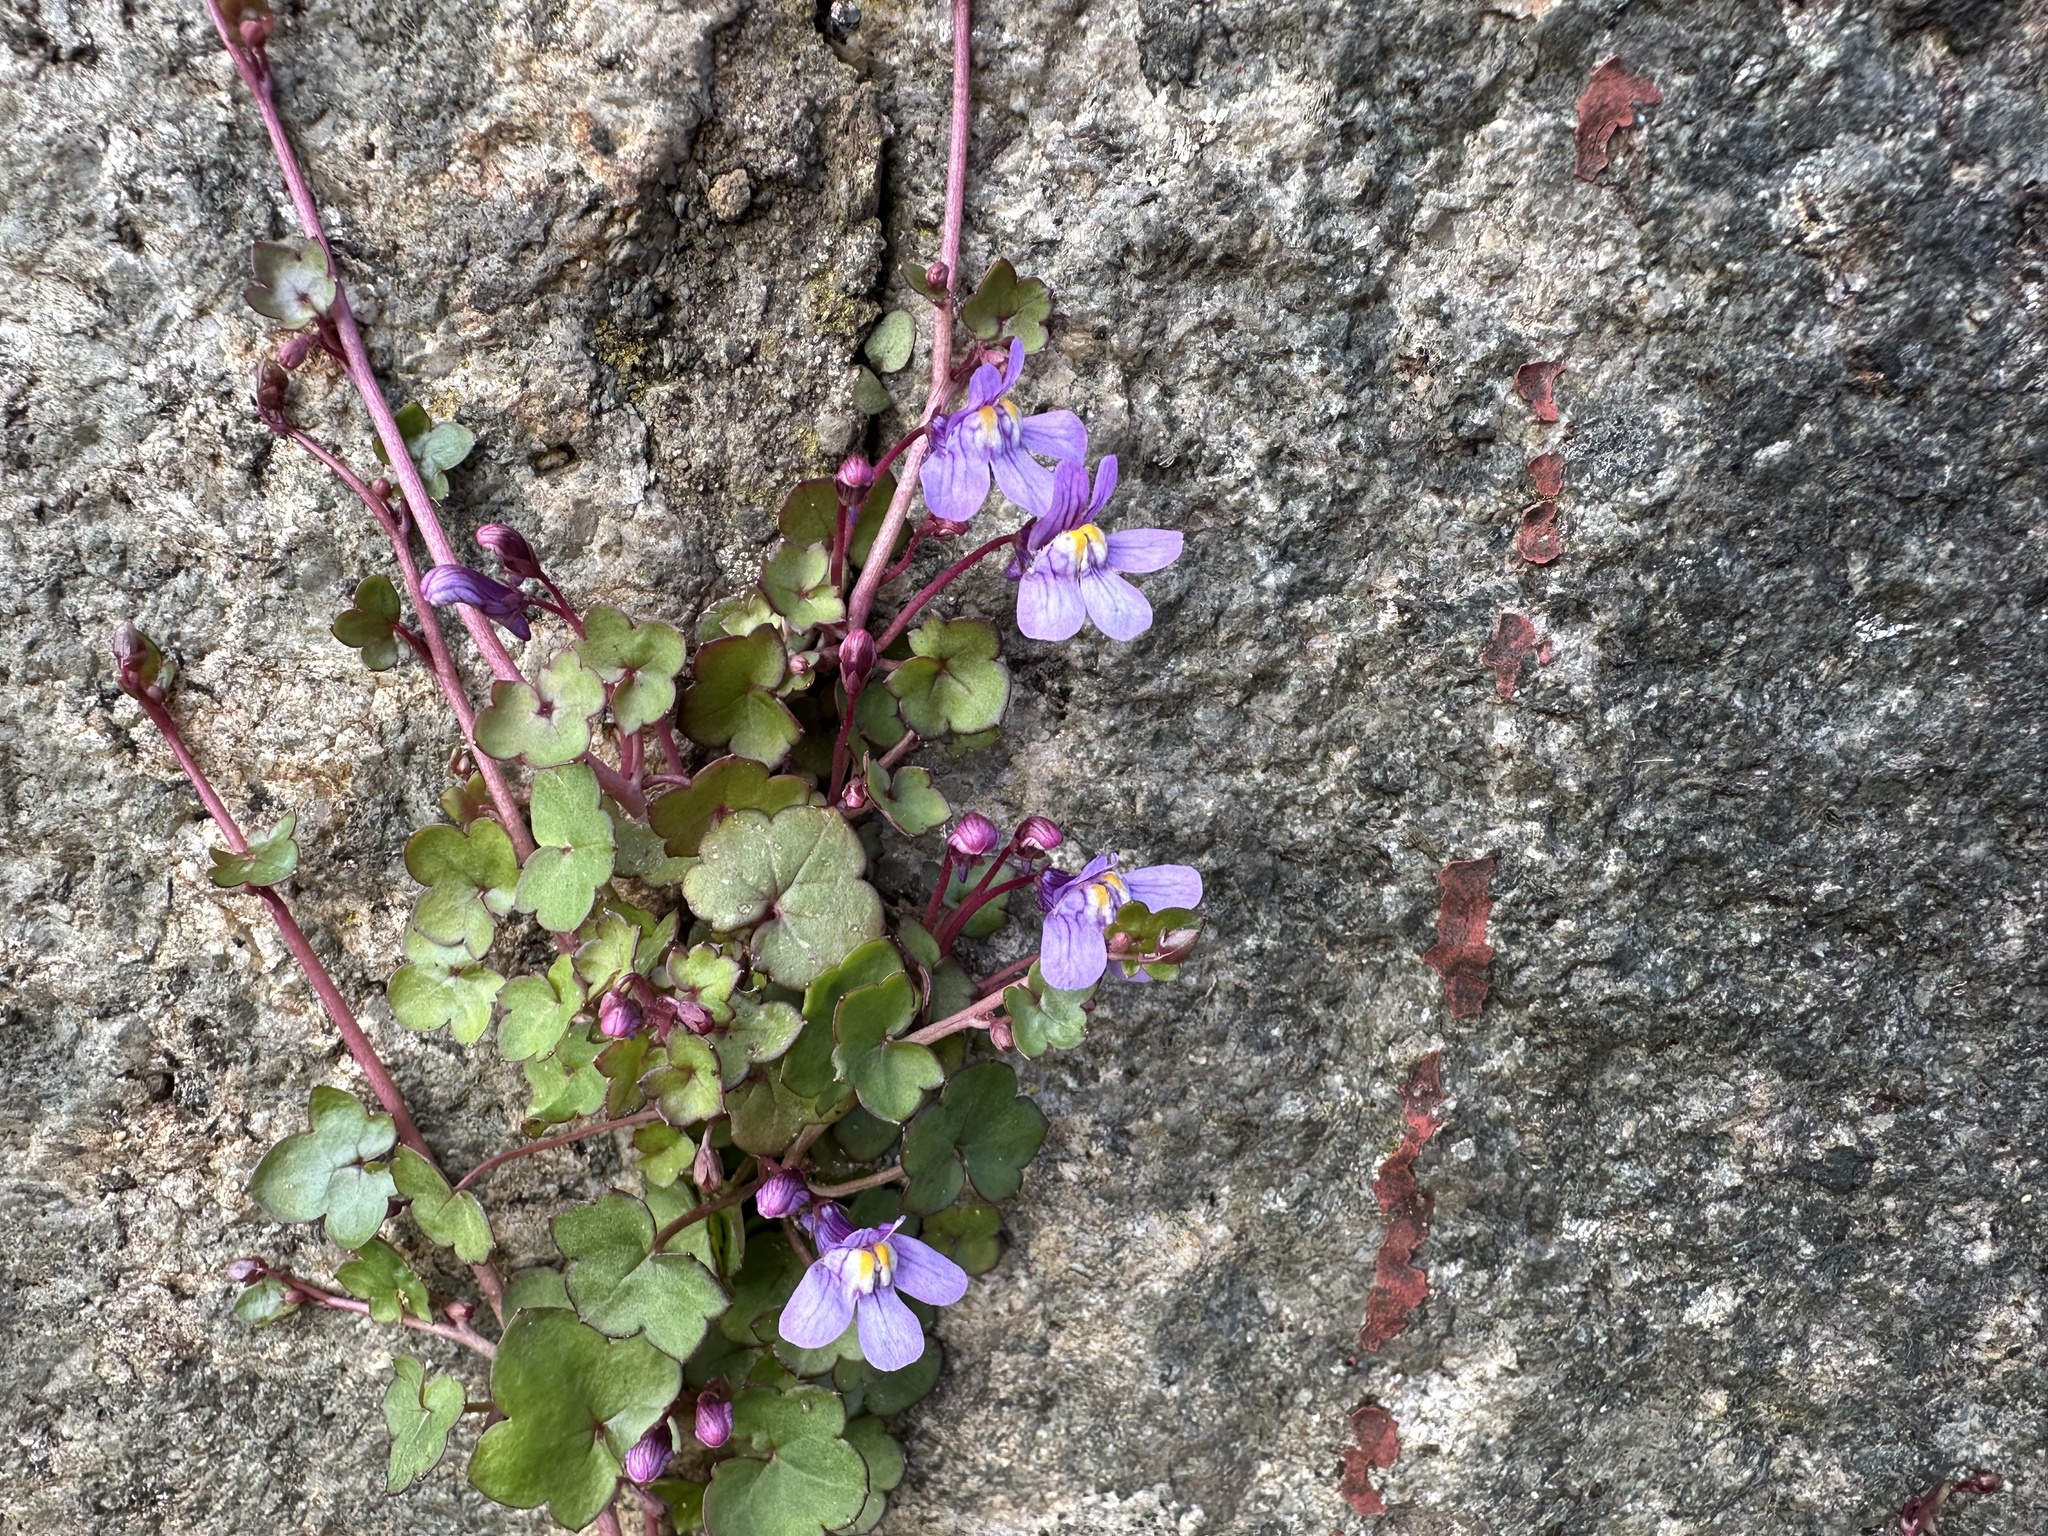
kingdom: Plantae
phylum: Tracheophyta
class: Magnoliopsida
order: Lamiales
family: Plantaginaceae
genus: Cymbalaria
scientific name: Cymbalaria muralis
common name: Ivy-leaved toadflax
